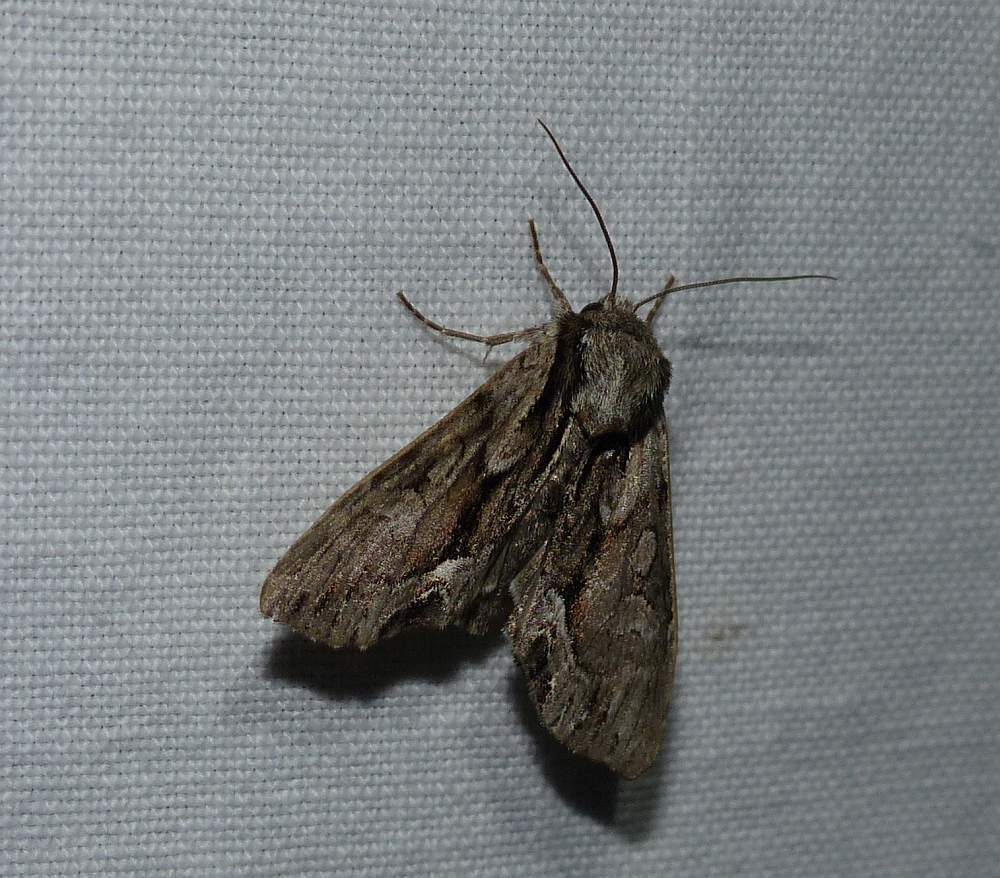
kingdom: Animalia
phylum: Arthropoda
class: Insecta
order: Lepidoptera
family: Noctuidae
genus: Hyppa
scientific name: Hyppa xylinoides
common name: Common hyppa moth
